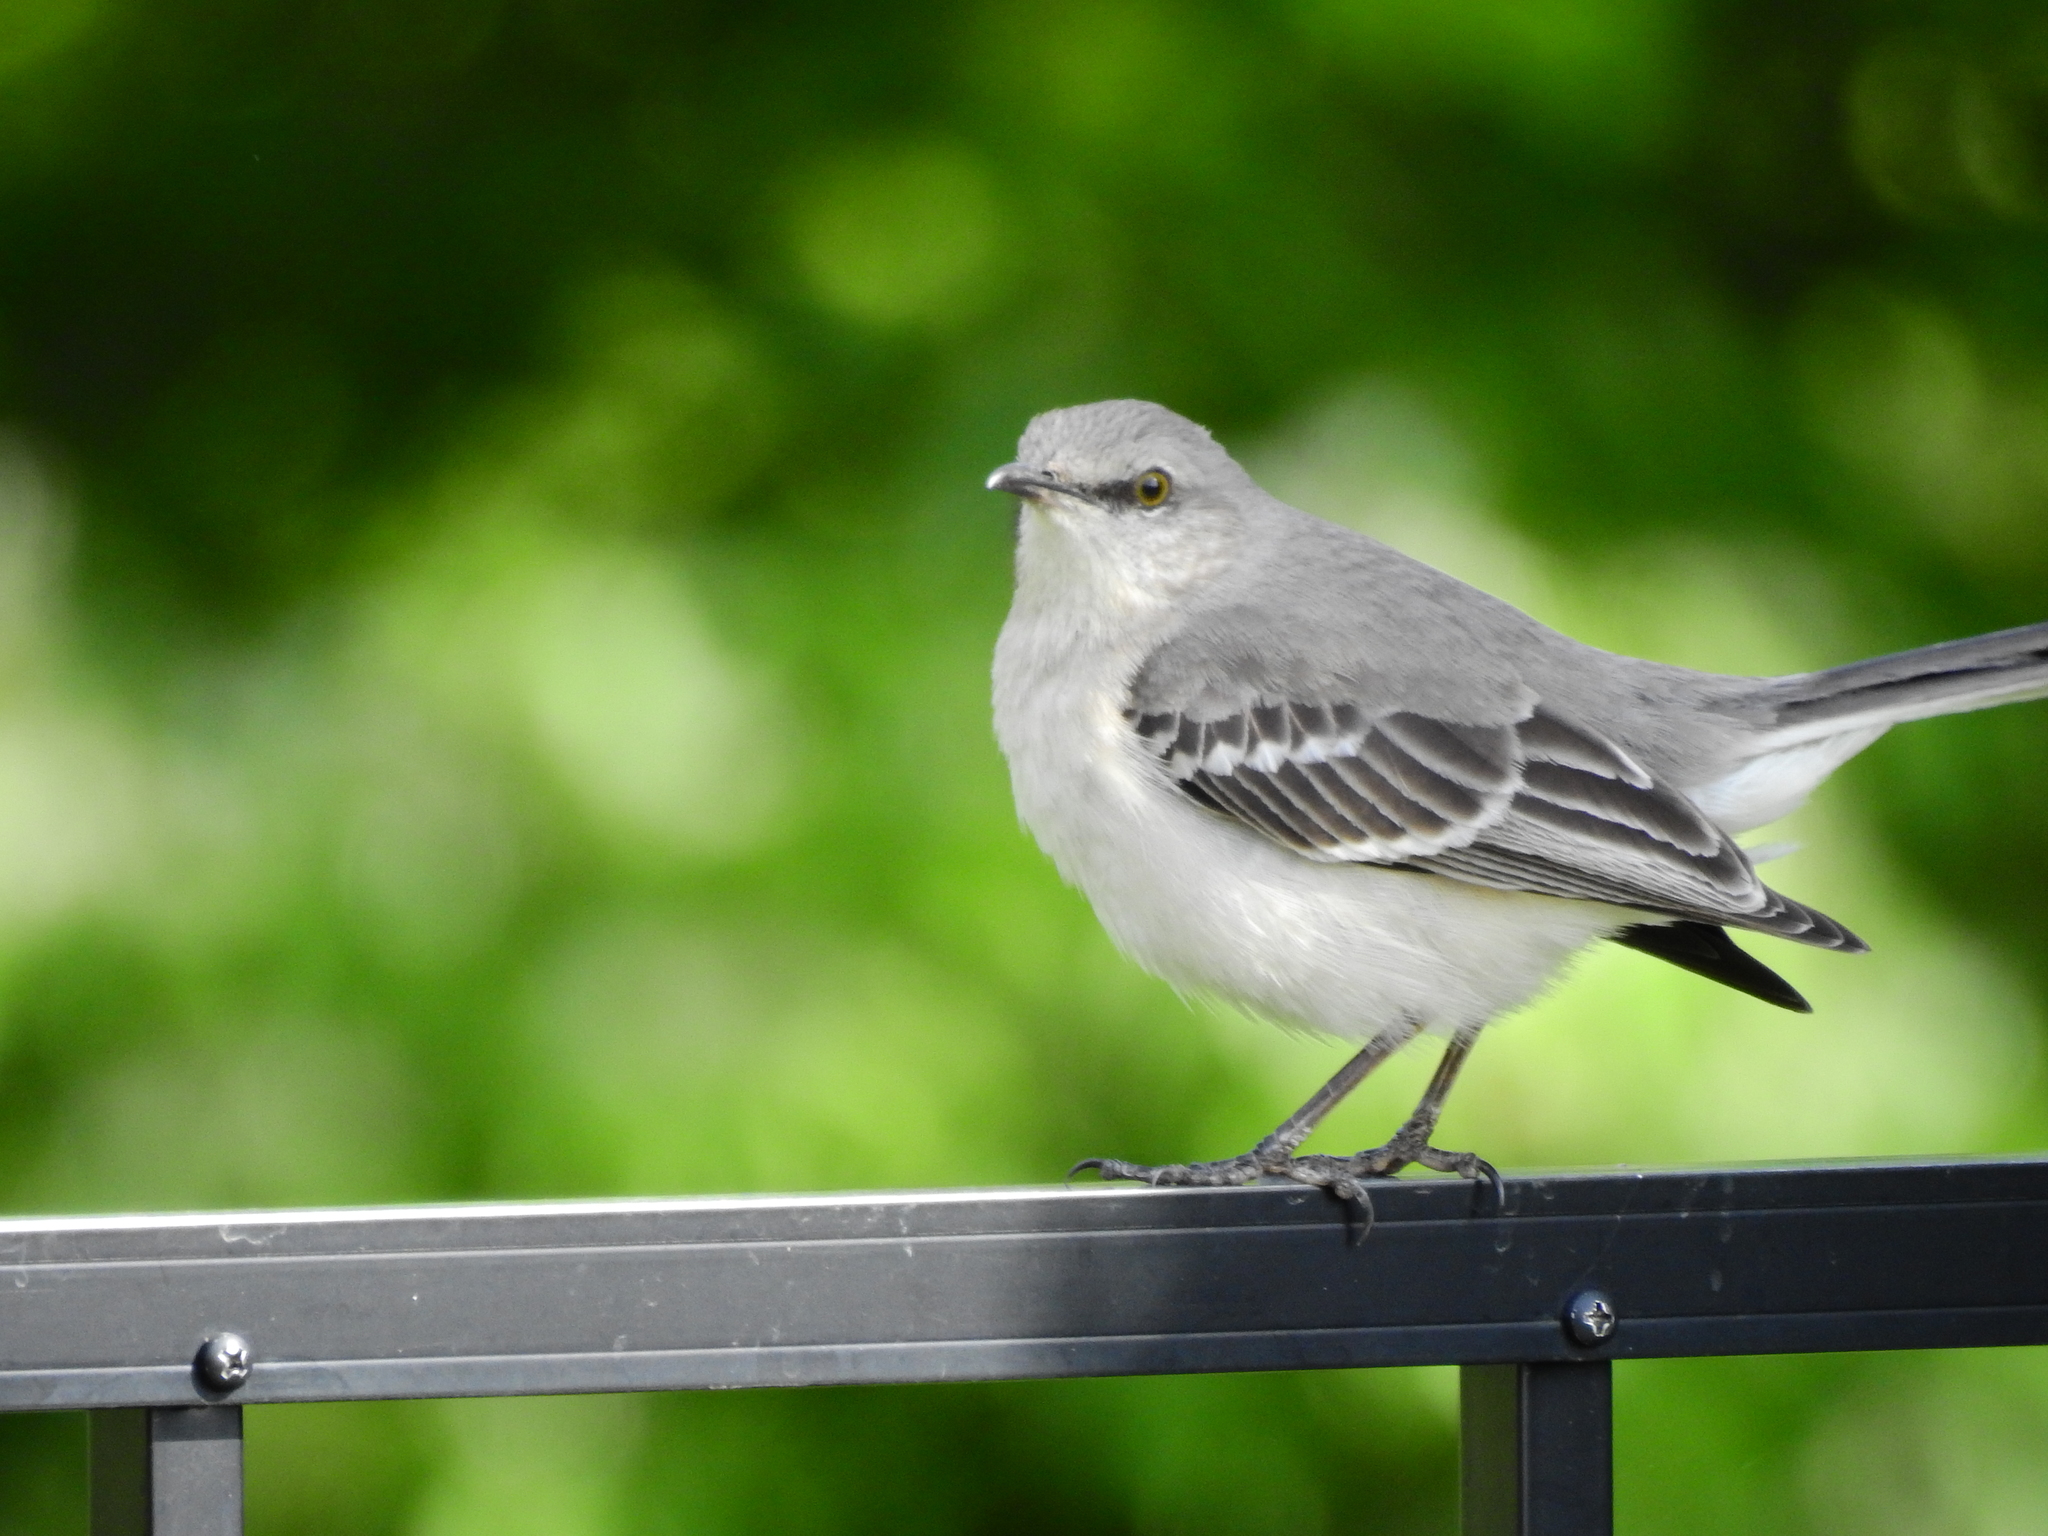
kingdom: Animalia
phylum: Chordata
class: Aves
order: Passeriformes
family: Mimidae
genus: Mimus
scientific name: Mimus polyglottos
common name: Northern mockingbird
